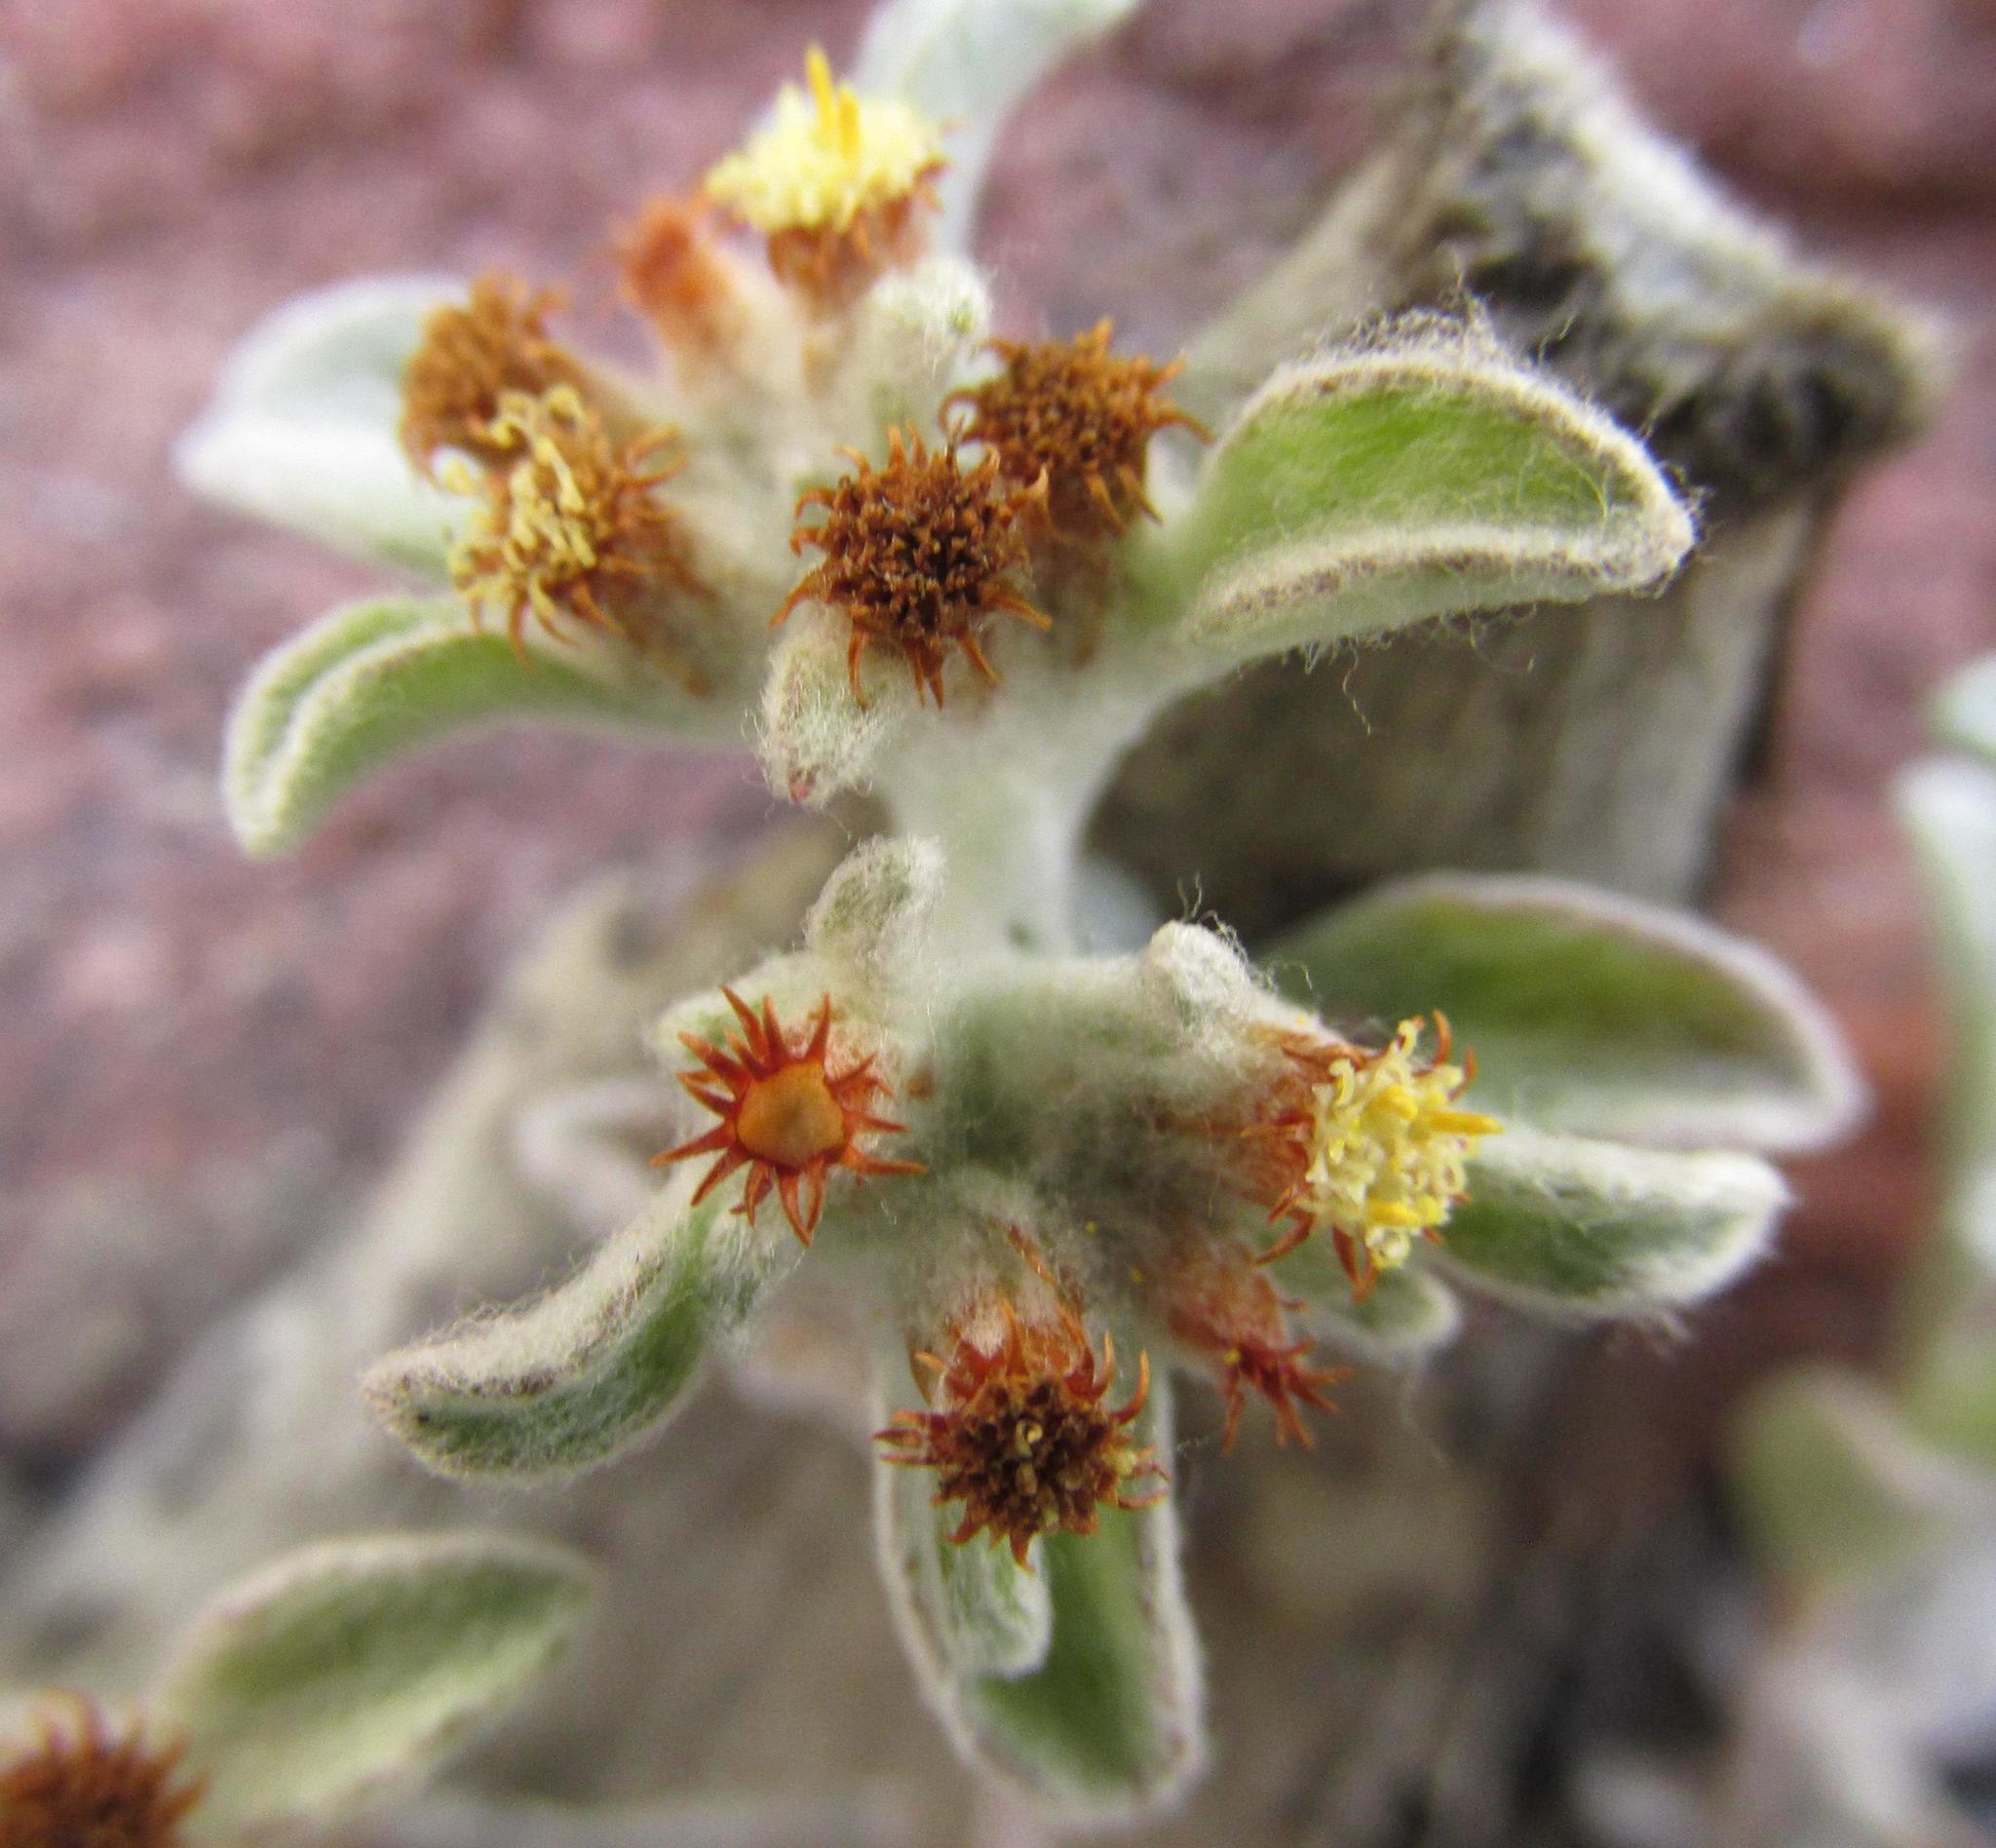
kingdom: Plantae
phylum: Tracheophyta
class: Magnoliopsida
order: Asterales
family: Asteraceae
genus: Helichrysum
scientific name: Helichrysum tinctum
